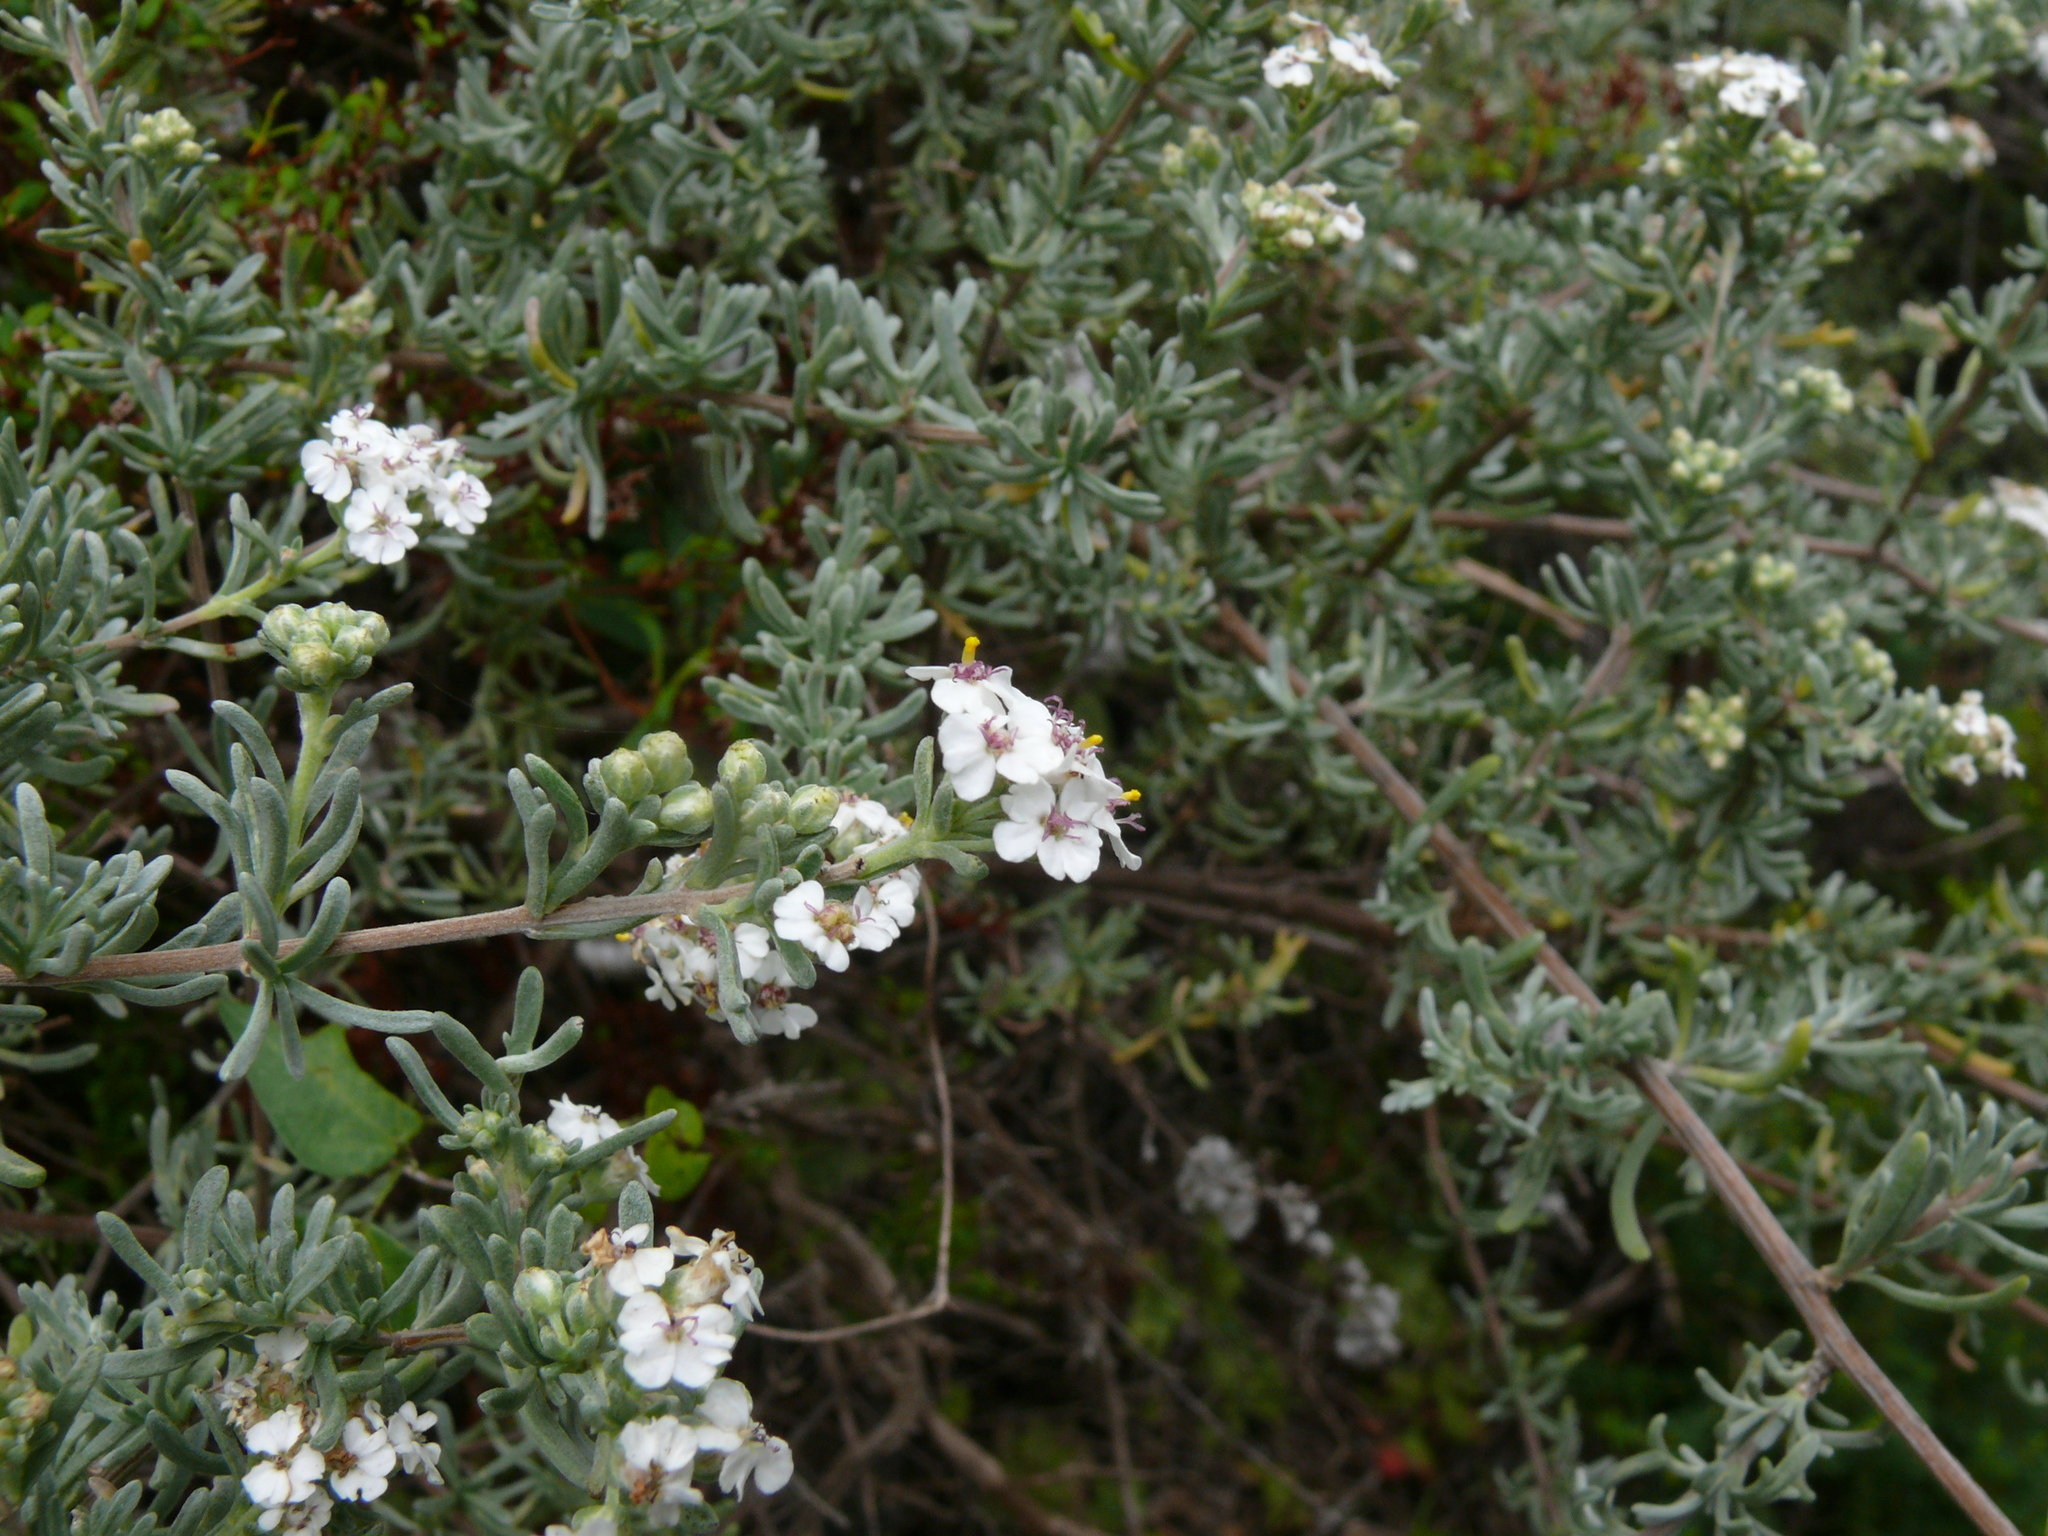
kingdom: Plantae
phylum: Tracheophyta
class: Magnoliopsida
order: Asterales
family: Asteraceae
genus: Eriocephalus
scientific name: Eriocephalus africanus
